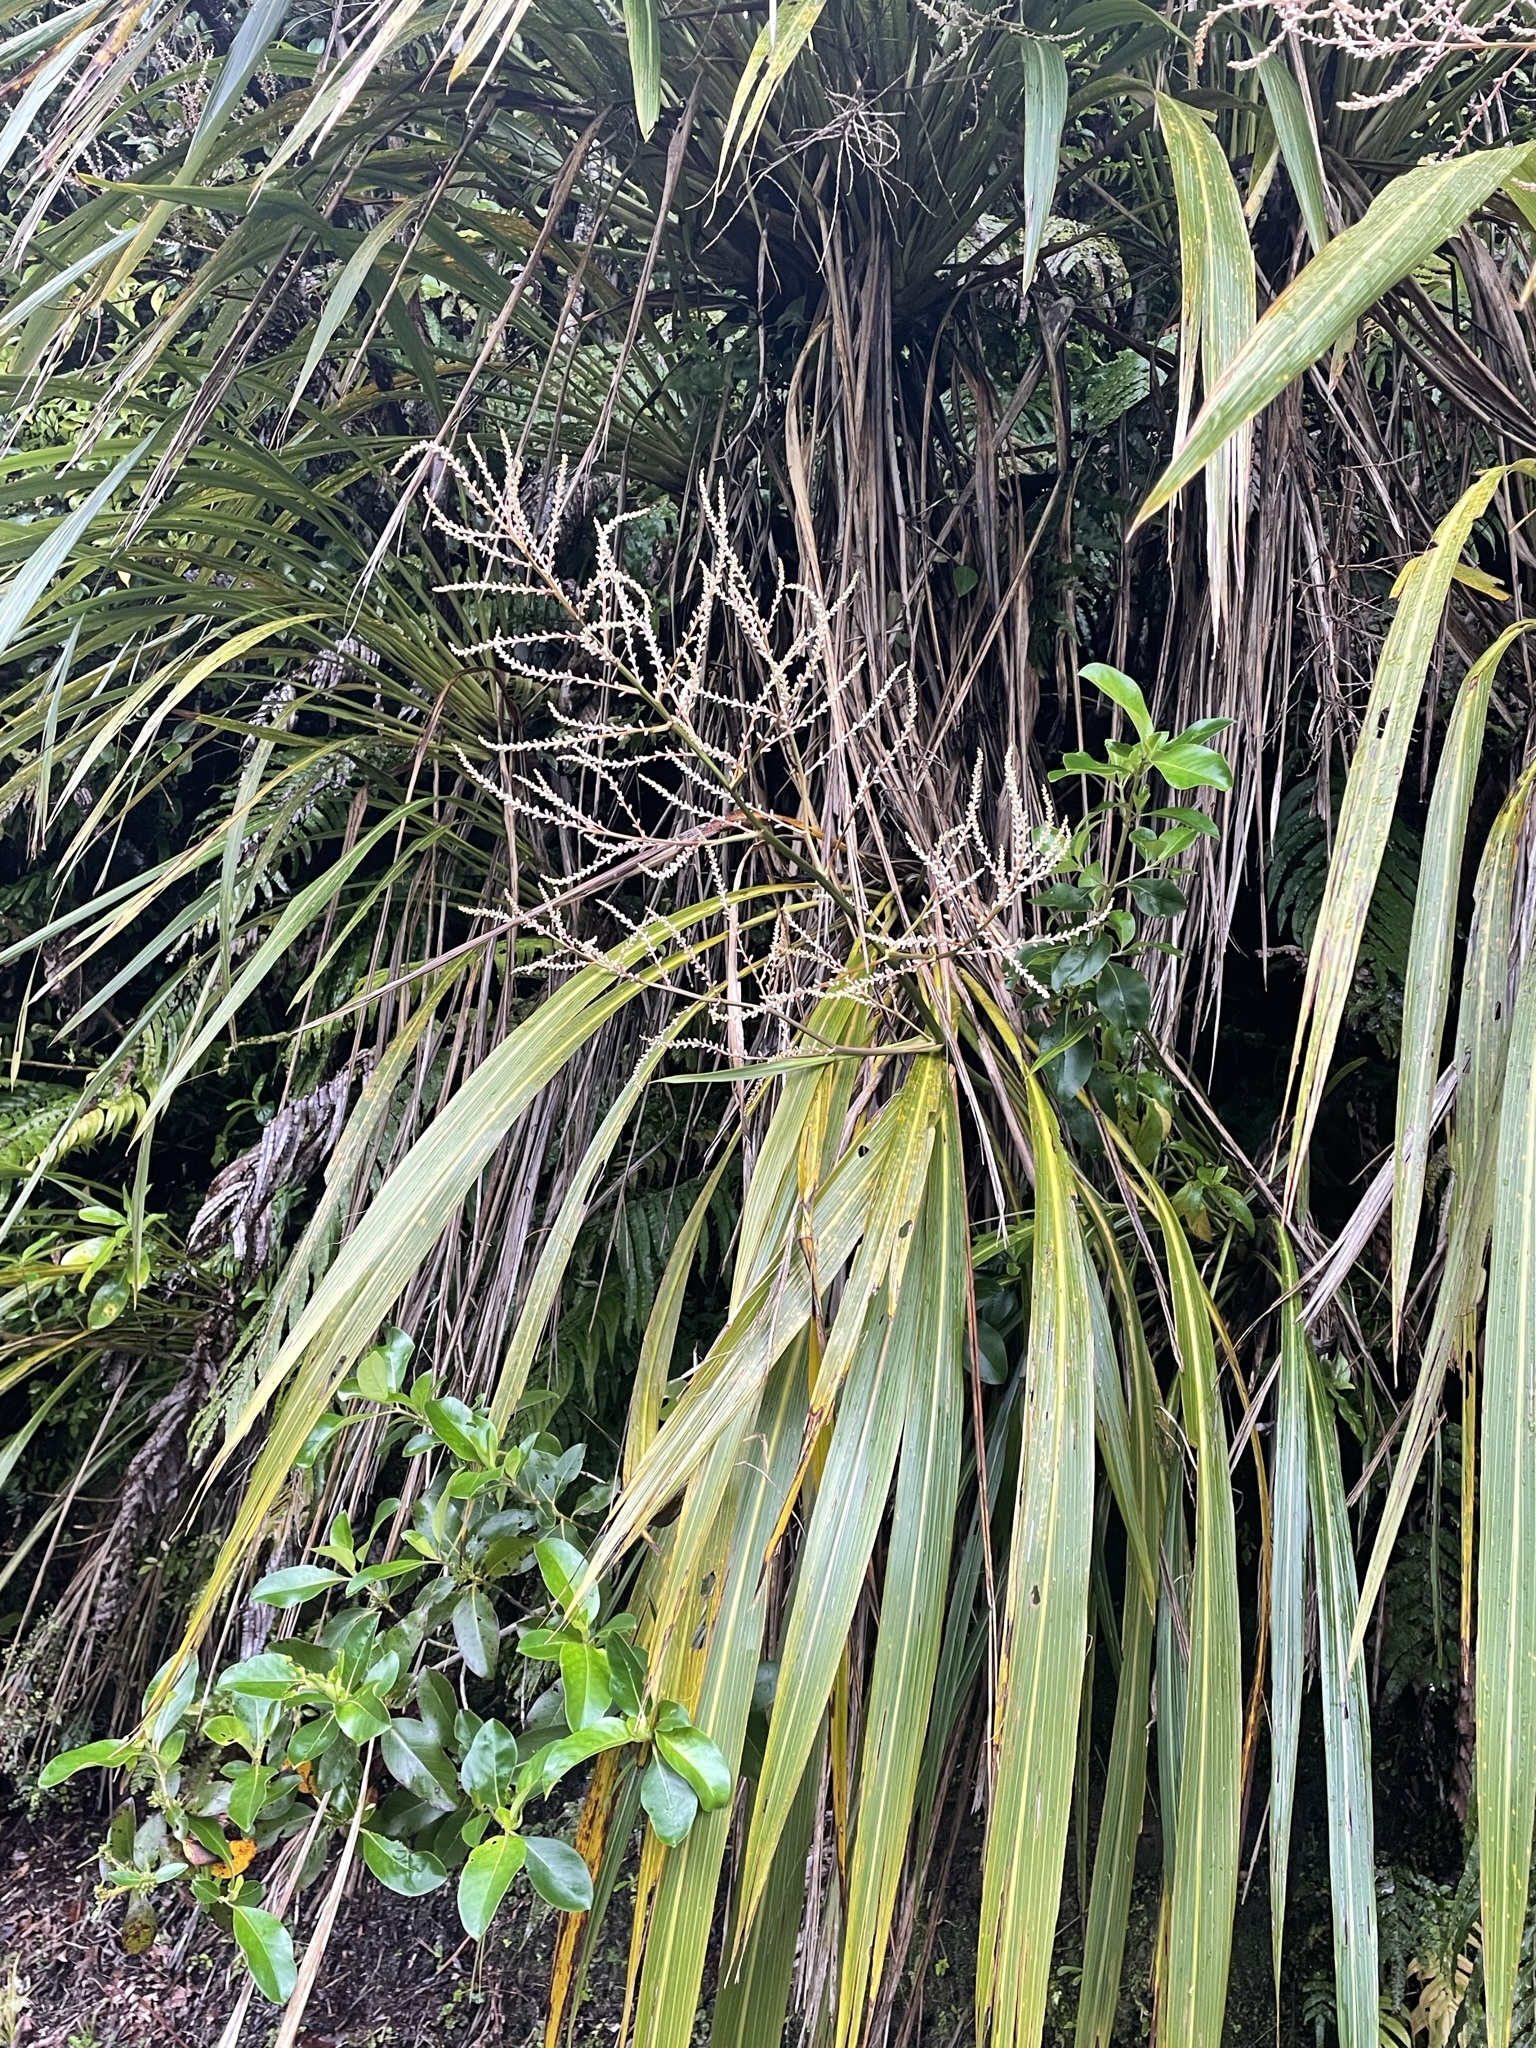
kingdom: Plantae
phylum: Tracheophyta
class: Liliopsida
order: Asparagales
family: Asparagaceae
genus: Cordyline
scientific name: Cordyline banksii
